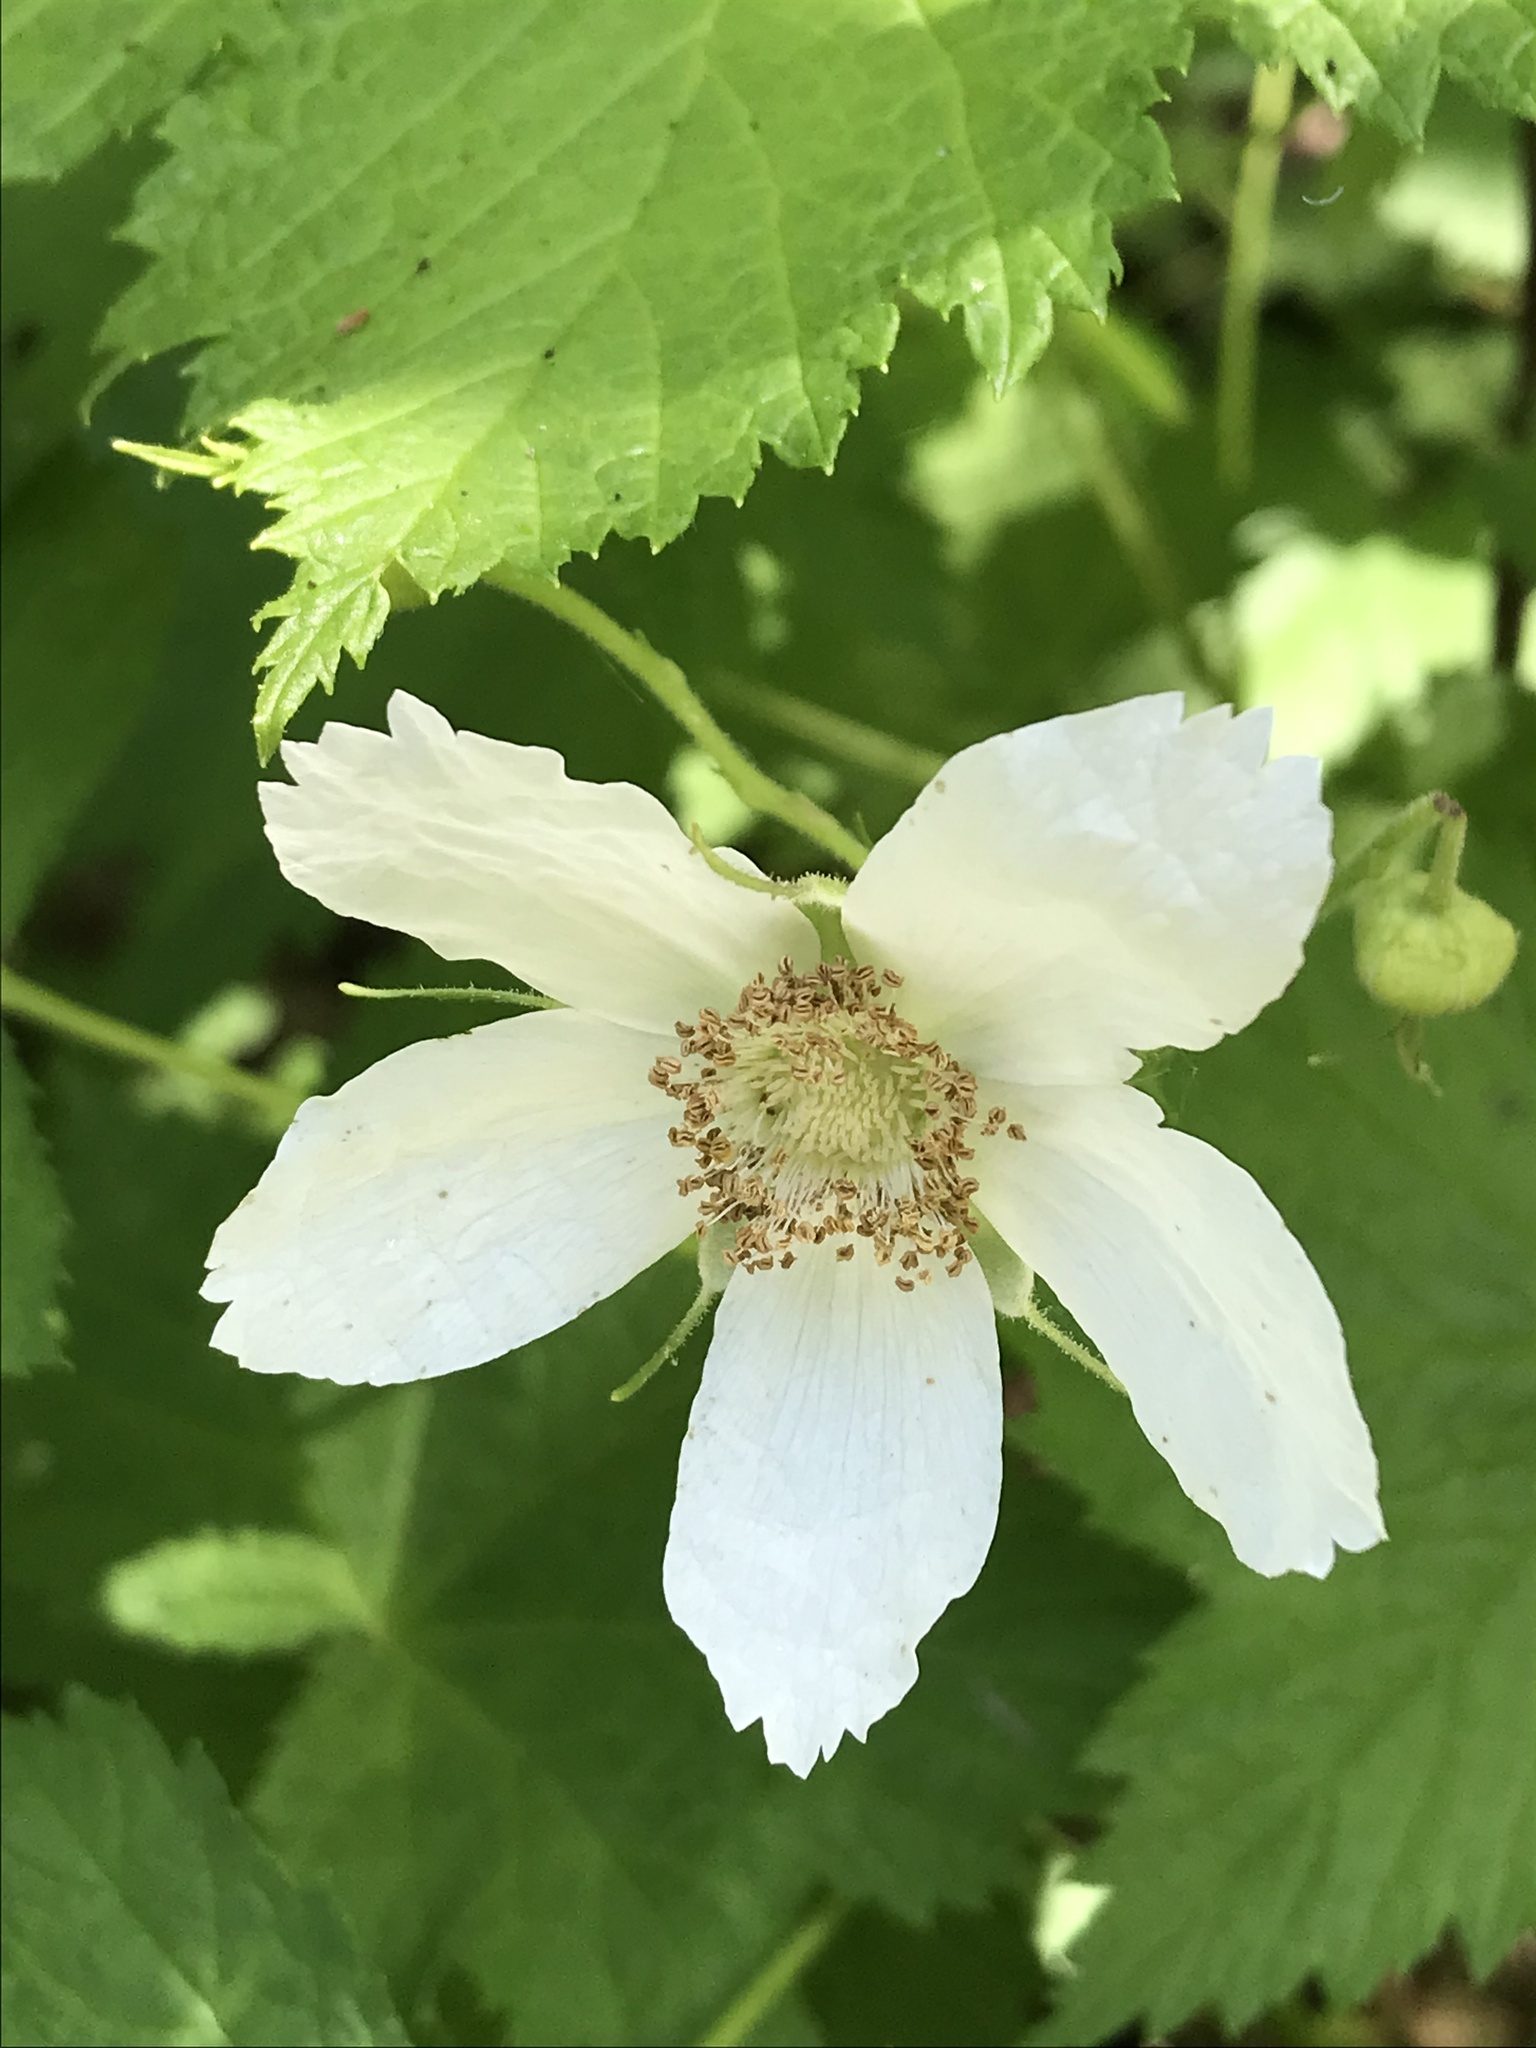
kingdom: Plantae
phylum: Tracheophyta
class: Magnoliopsida
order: Rosales
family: Rosaceae
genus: Rubus
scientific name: Rubus parviflorus
